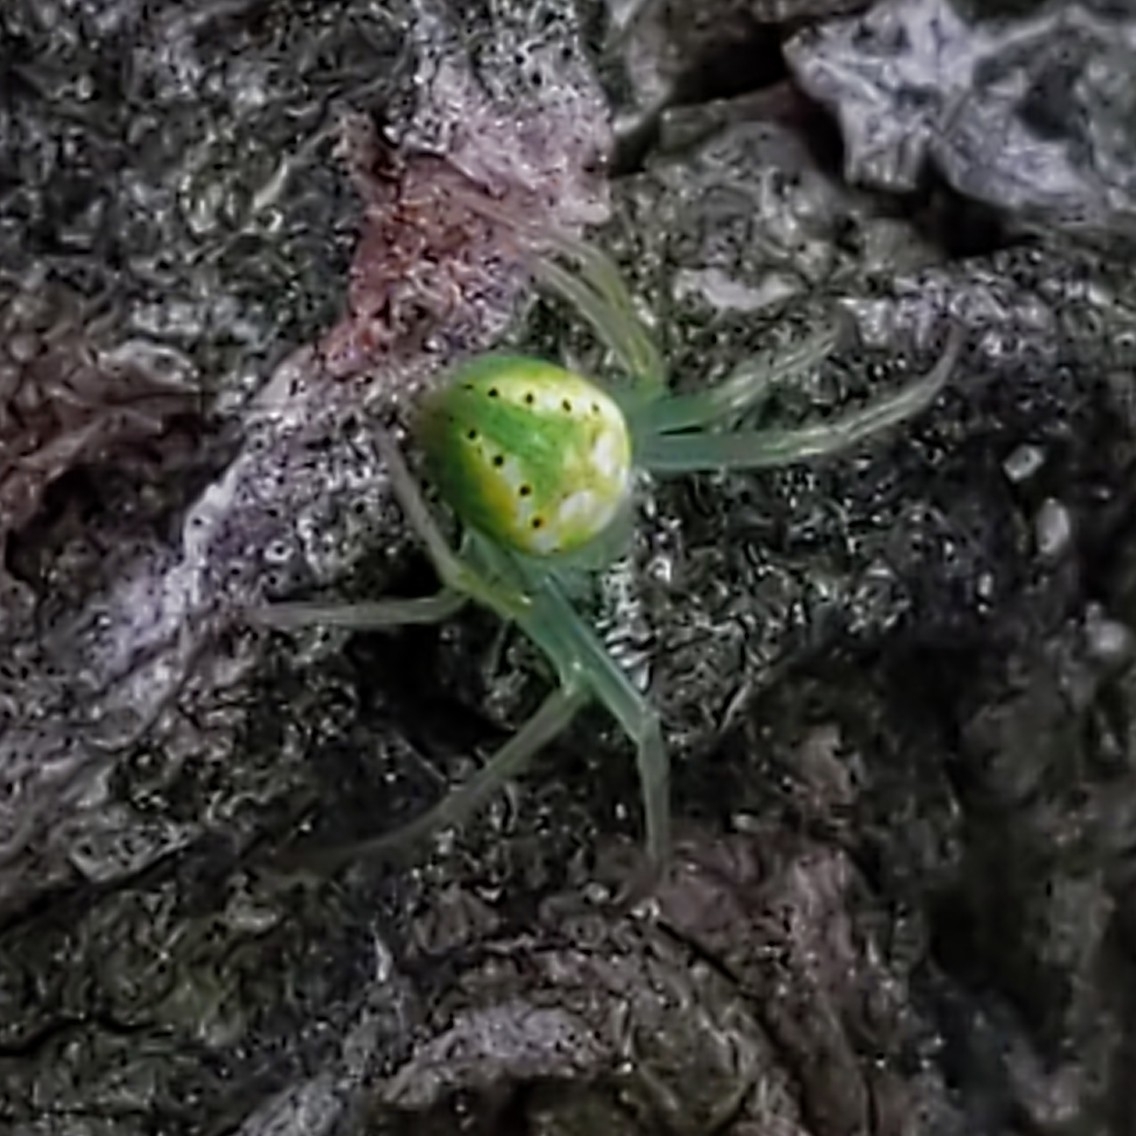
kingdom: Animalia
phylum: Arthropoda
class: Arachnida
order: Araneae
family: Araneidae
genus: Araneus
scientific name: Araneus cingulatus
